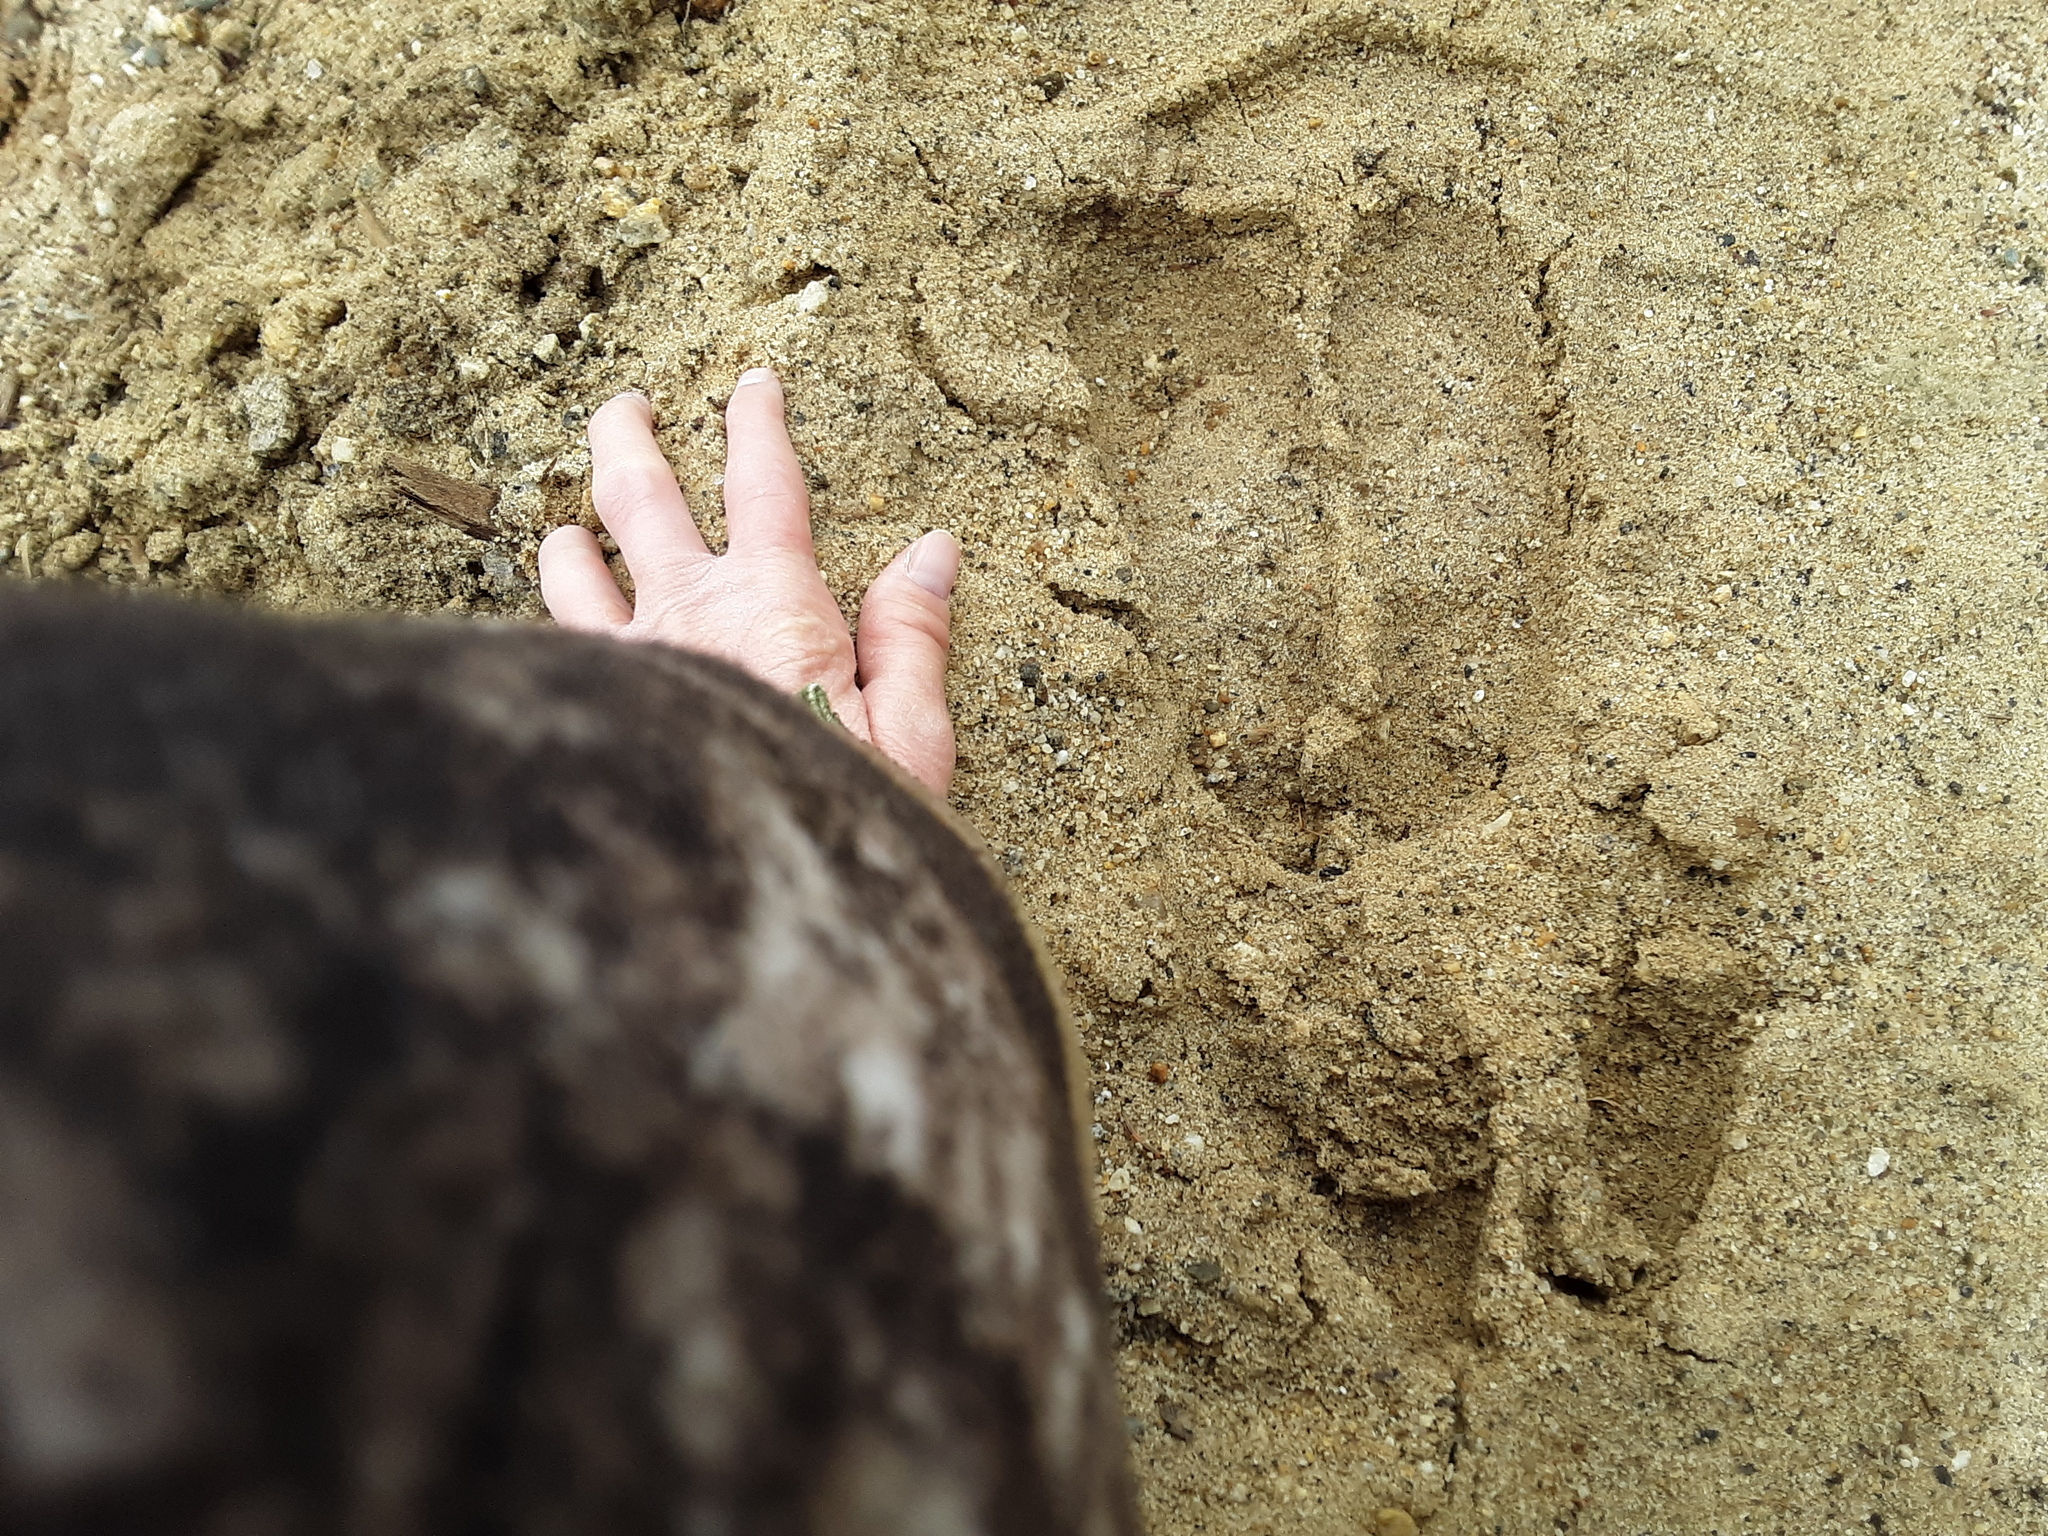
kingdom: Animalia
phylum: Chordata
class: Mammalia
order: Artiodactyla
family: Cervidae
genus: Alces
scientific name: Alces alces
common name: Moose
